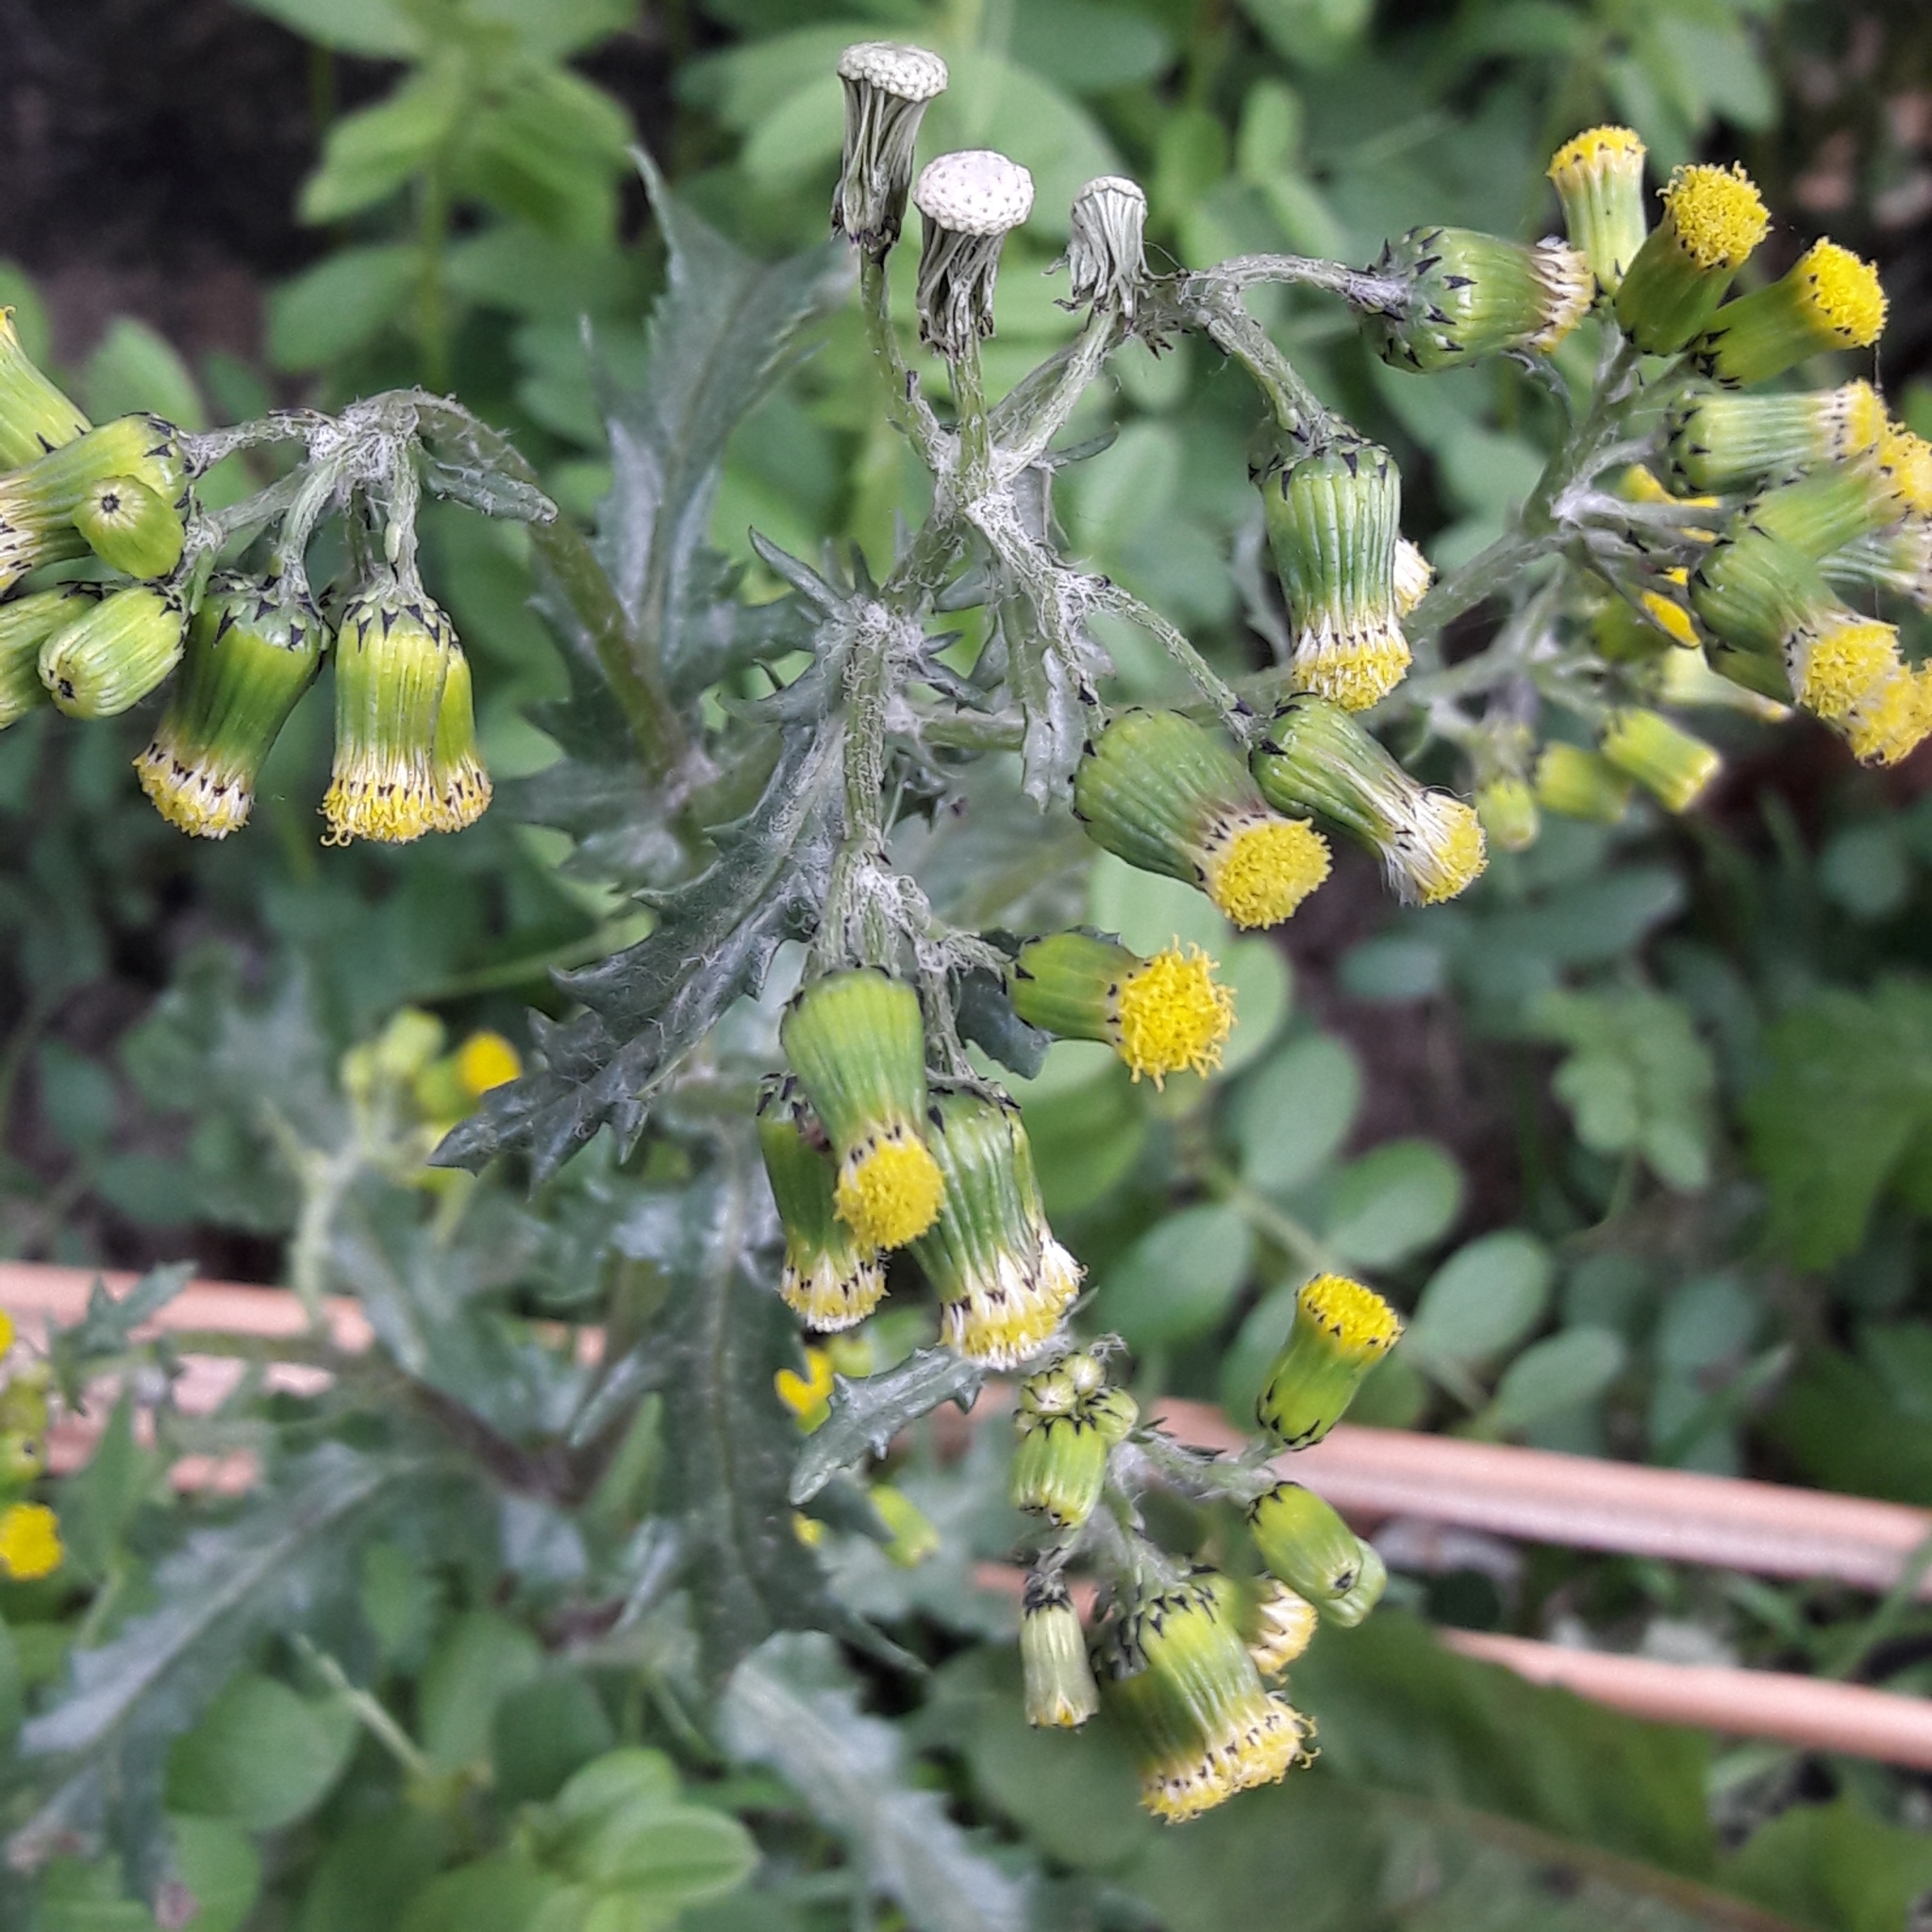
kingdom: Plantae
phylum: Tracheophyta
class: Magnoliopsida
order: Asterales
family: Asteraceae
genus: Senecio
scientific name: Senecio vulgaris
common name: Old-man-in-the-spring
